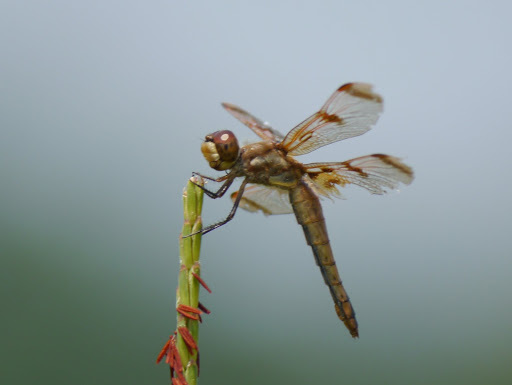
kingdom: Animalia
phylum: Arthropoda
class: Insecta
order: Odonata
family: Libellulidae
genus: Libellula
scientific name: Libellula semifasciata
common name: Painted skimmer
